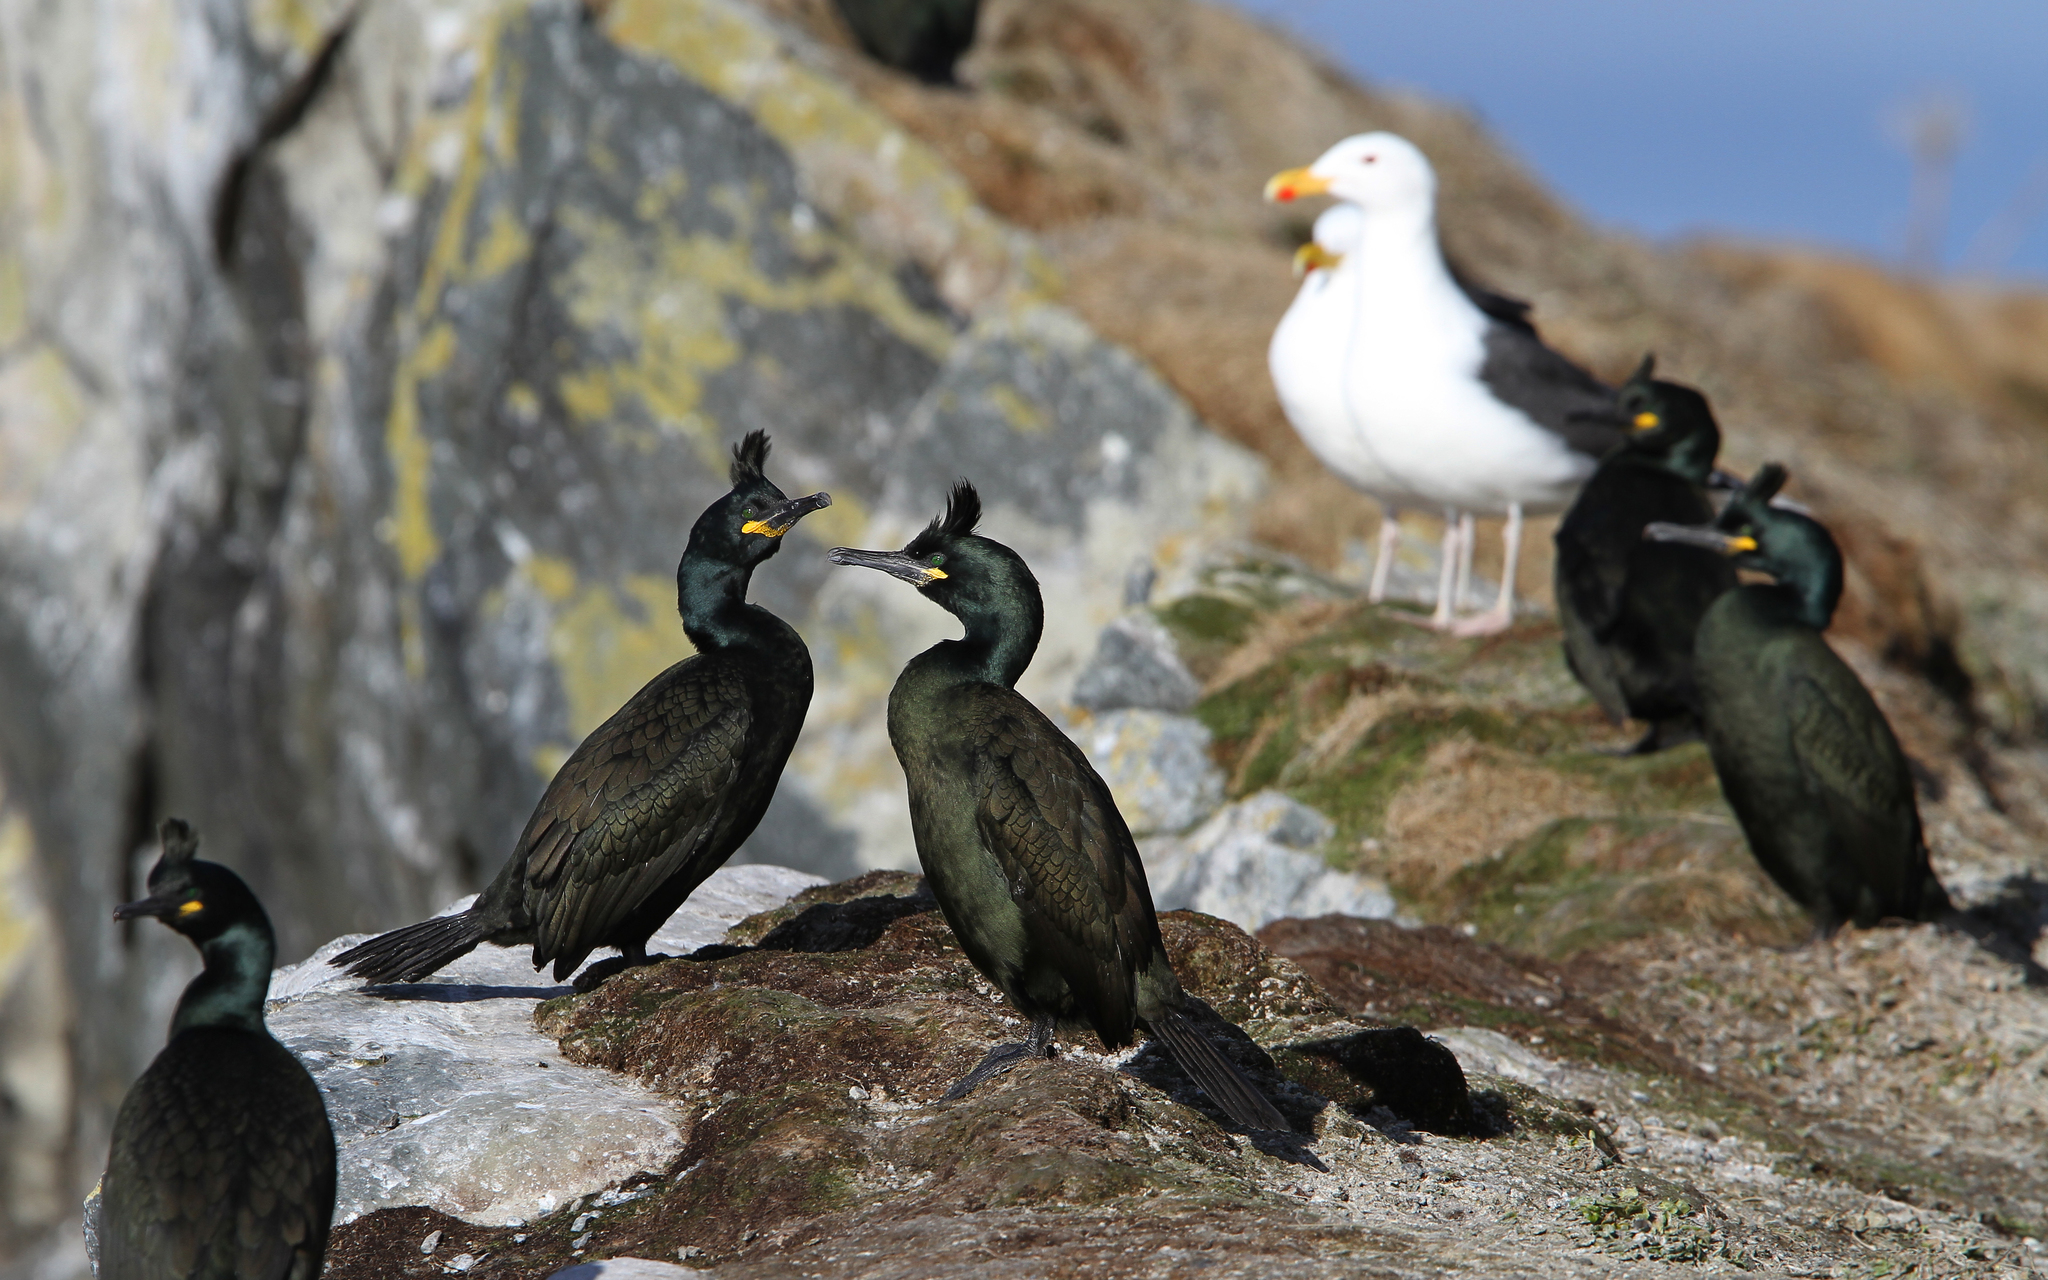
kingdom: Animalia
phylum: Chordata
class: Aves
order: Suliformes
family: Phalacrocoracidae
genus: Phalacrocorax
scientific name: Phalacrocorax aristotelis
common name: European shag
